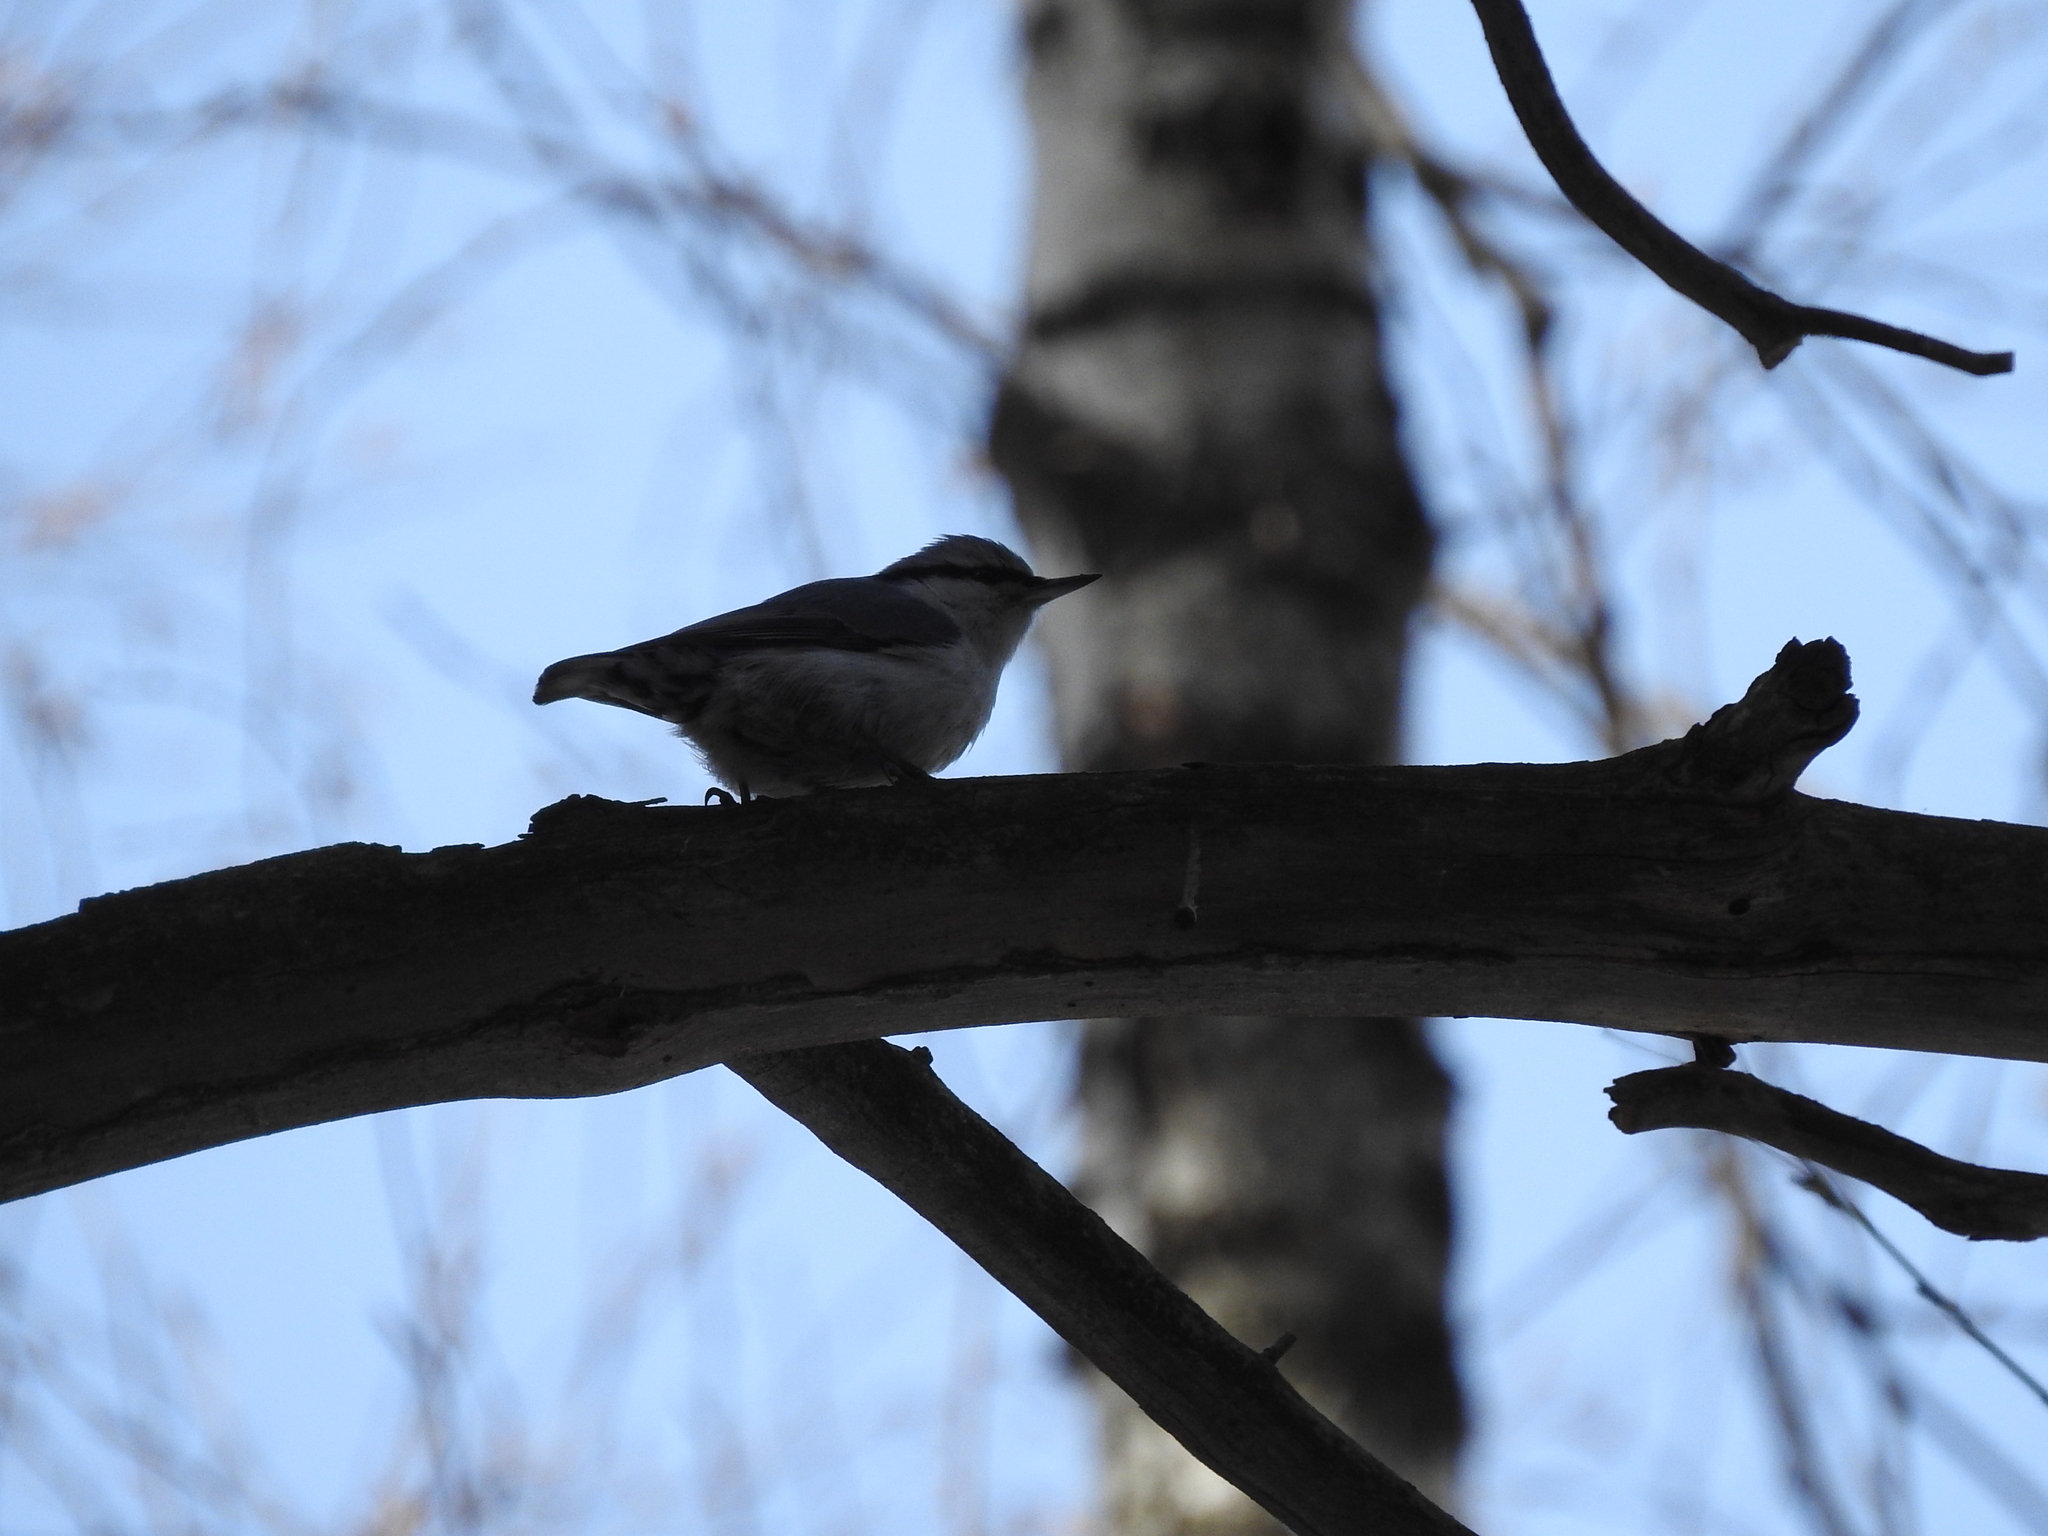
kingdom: Animalia
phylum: Chordata
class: Aves
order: Passeriformes
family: Sittidae
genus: Sitta
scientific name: Sitta europaea
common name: Eurasian nuthatch
